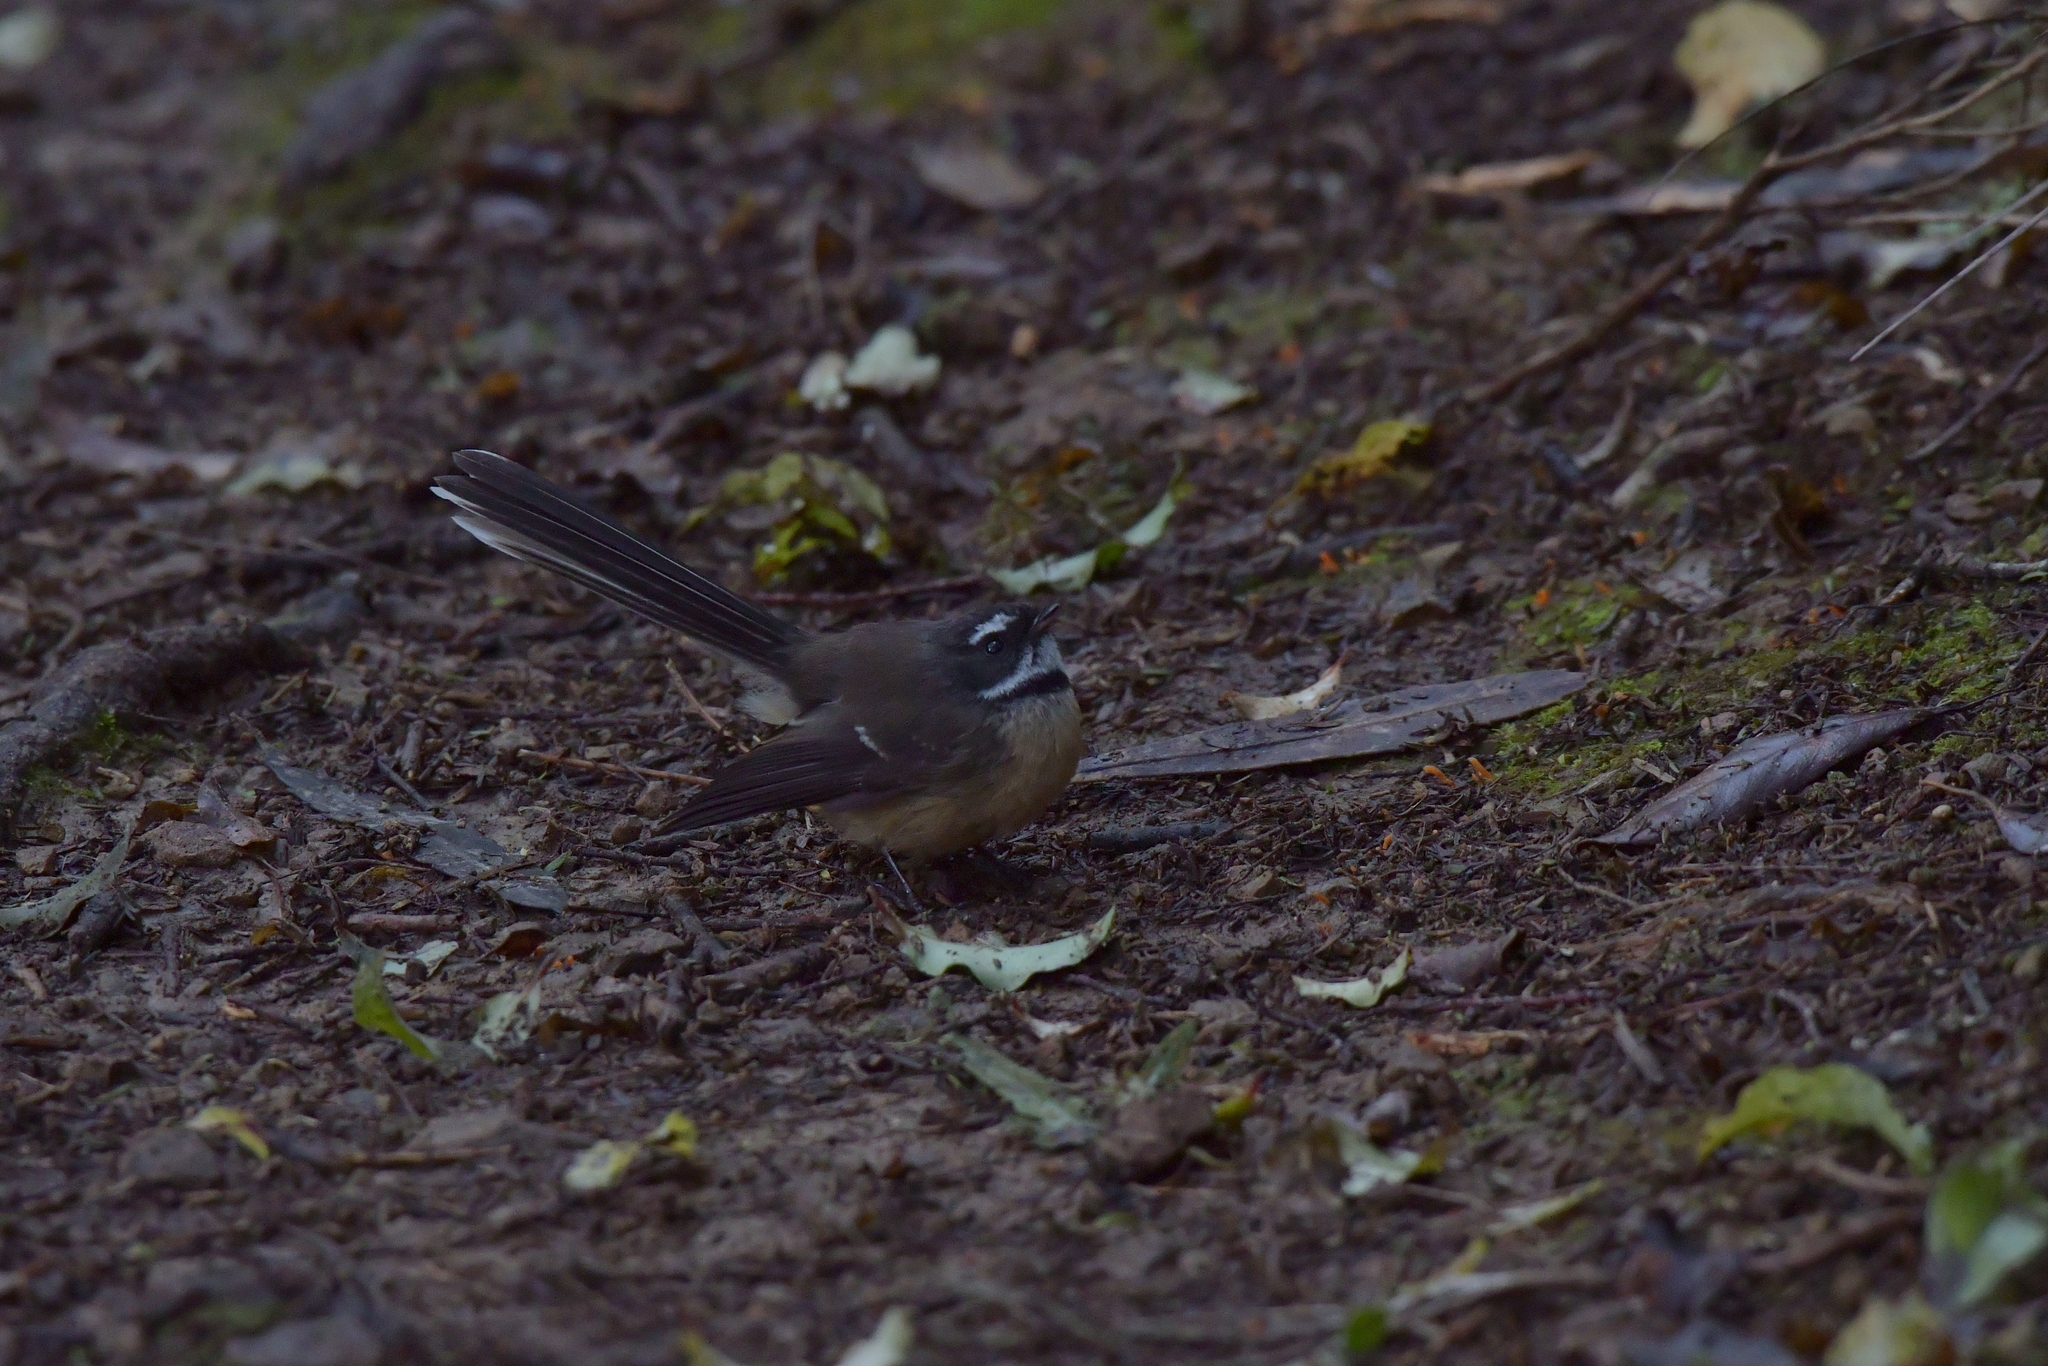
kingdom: Animalia
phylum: Chordata
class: Aves
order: Passeriformes
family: Rhipiduridae
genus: Rhipidura
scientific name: Rhipidura fuliginosa
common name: New zealand fantail
